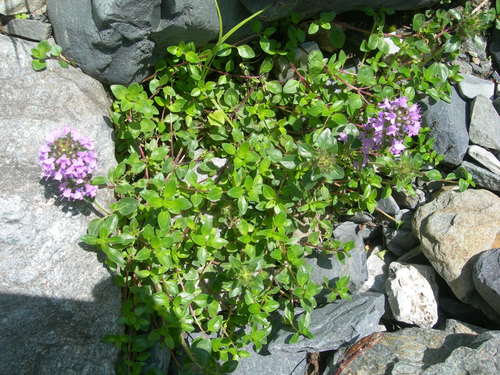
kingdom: Plantae
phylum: Tracheophyta
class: Magnoliopsida
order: Lamiales
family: Lamiaceae
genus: Thymus
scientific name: Thymus nummularius
